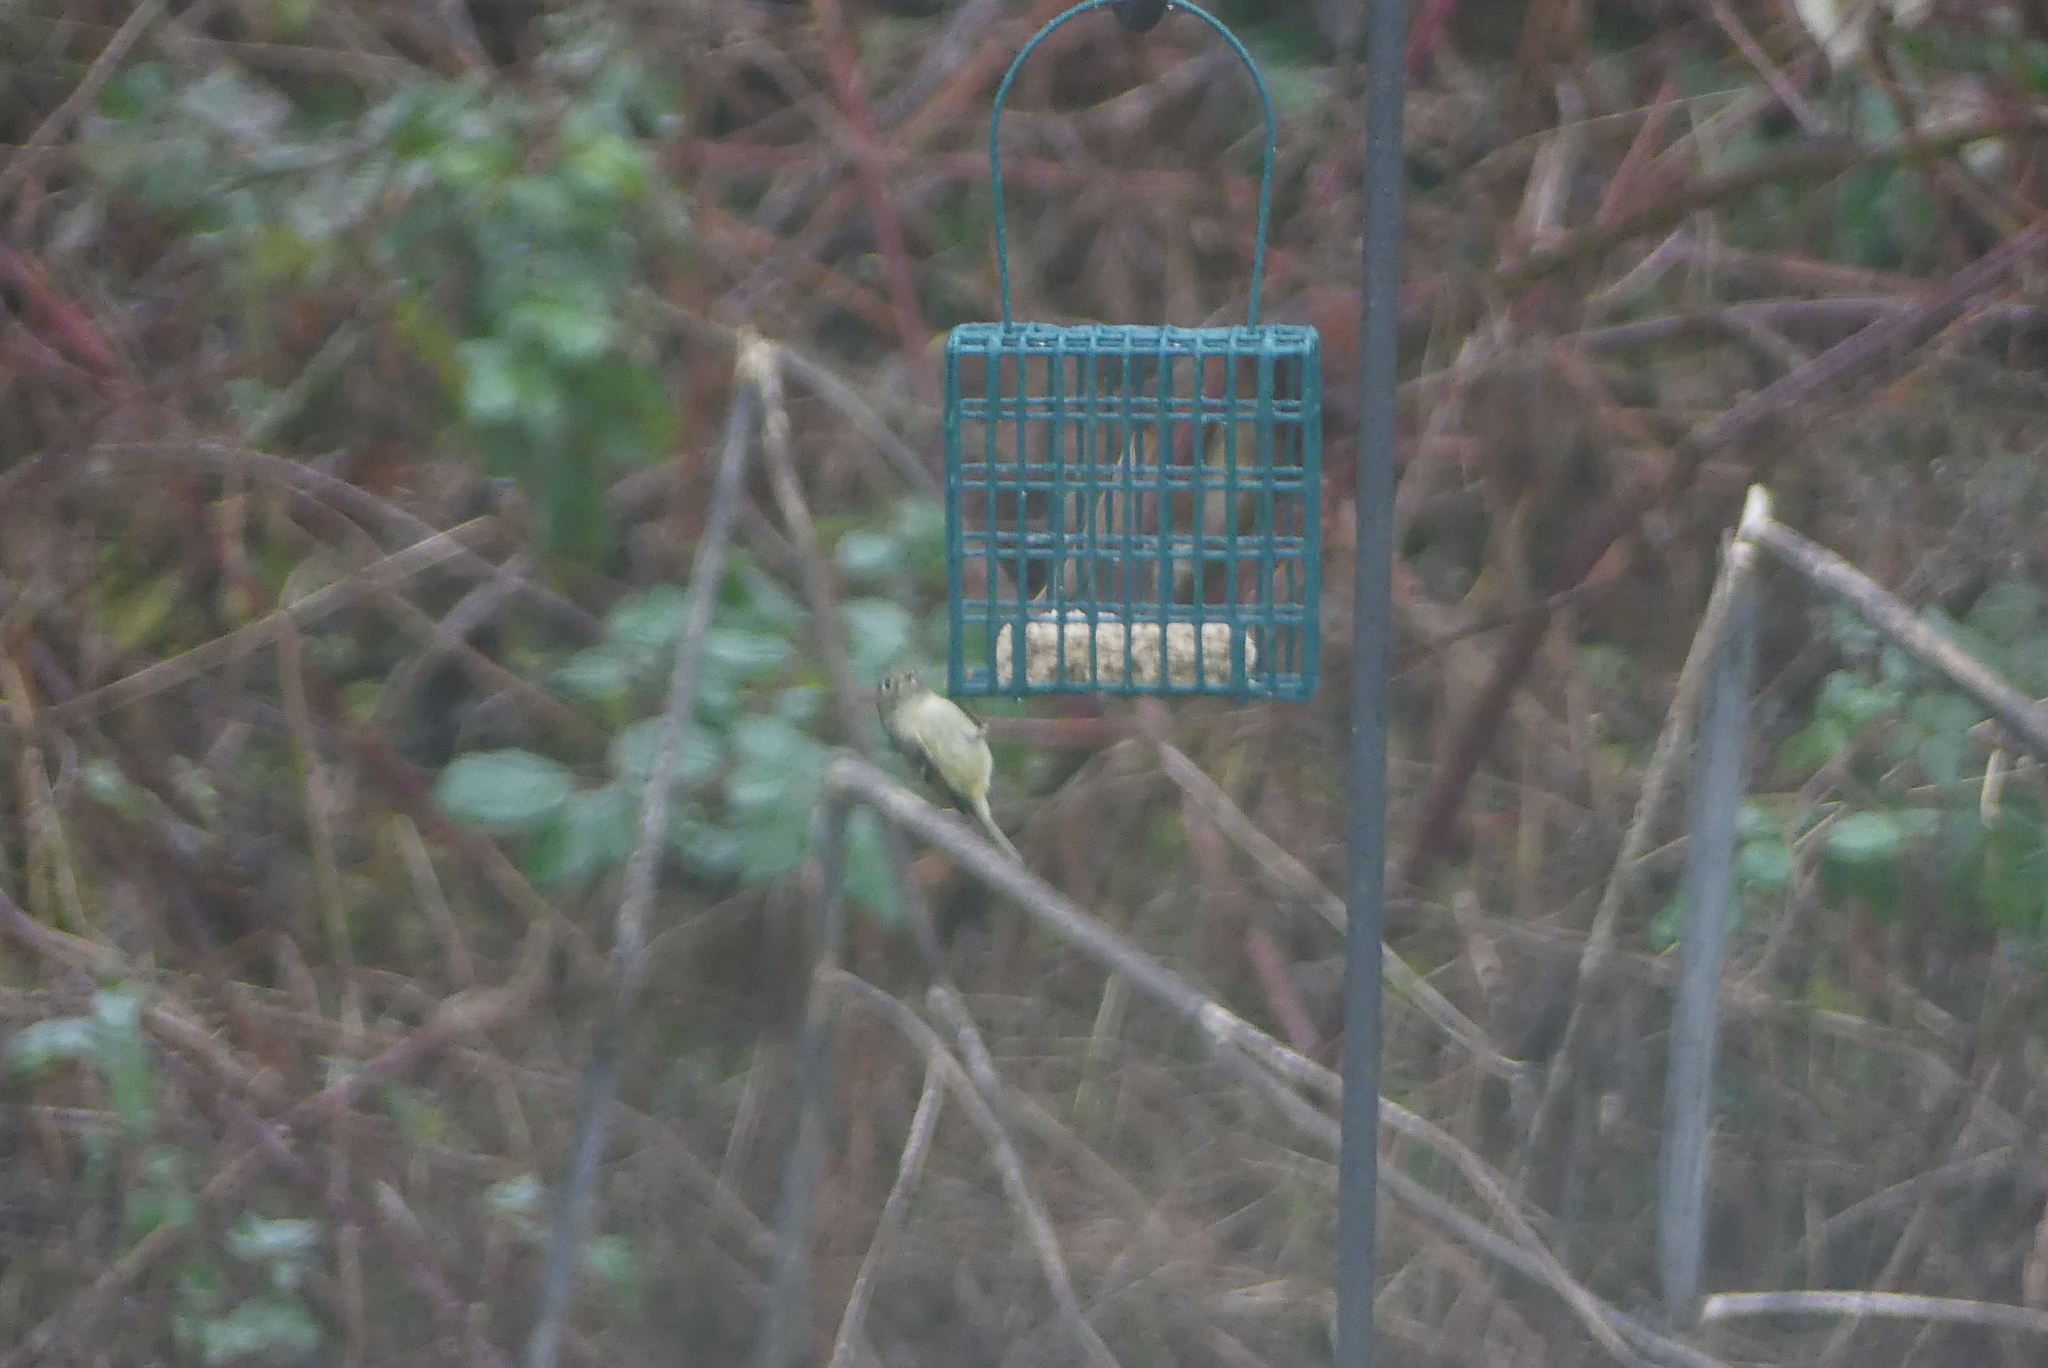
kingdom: Animalia
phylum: Chordata
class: Aves
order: Passeriformes
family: Regulidae
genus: Regulus
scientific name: Regulus calendula
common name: Ruby-crowned kinglet
